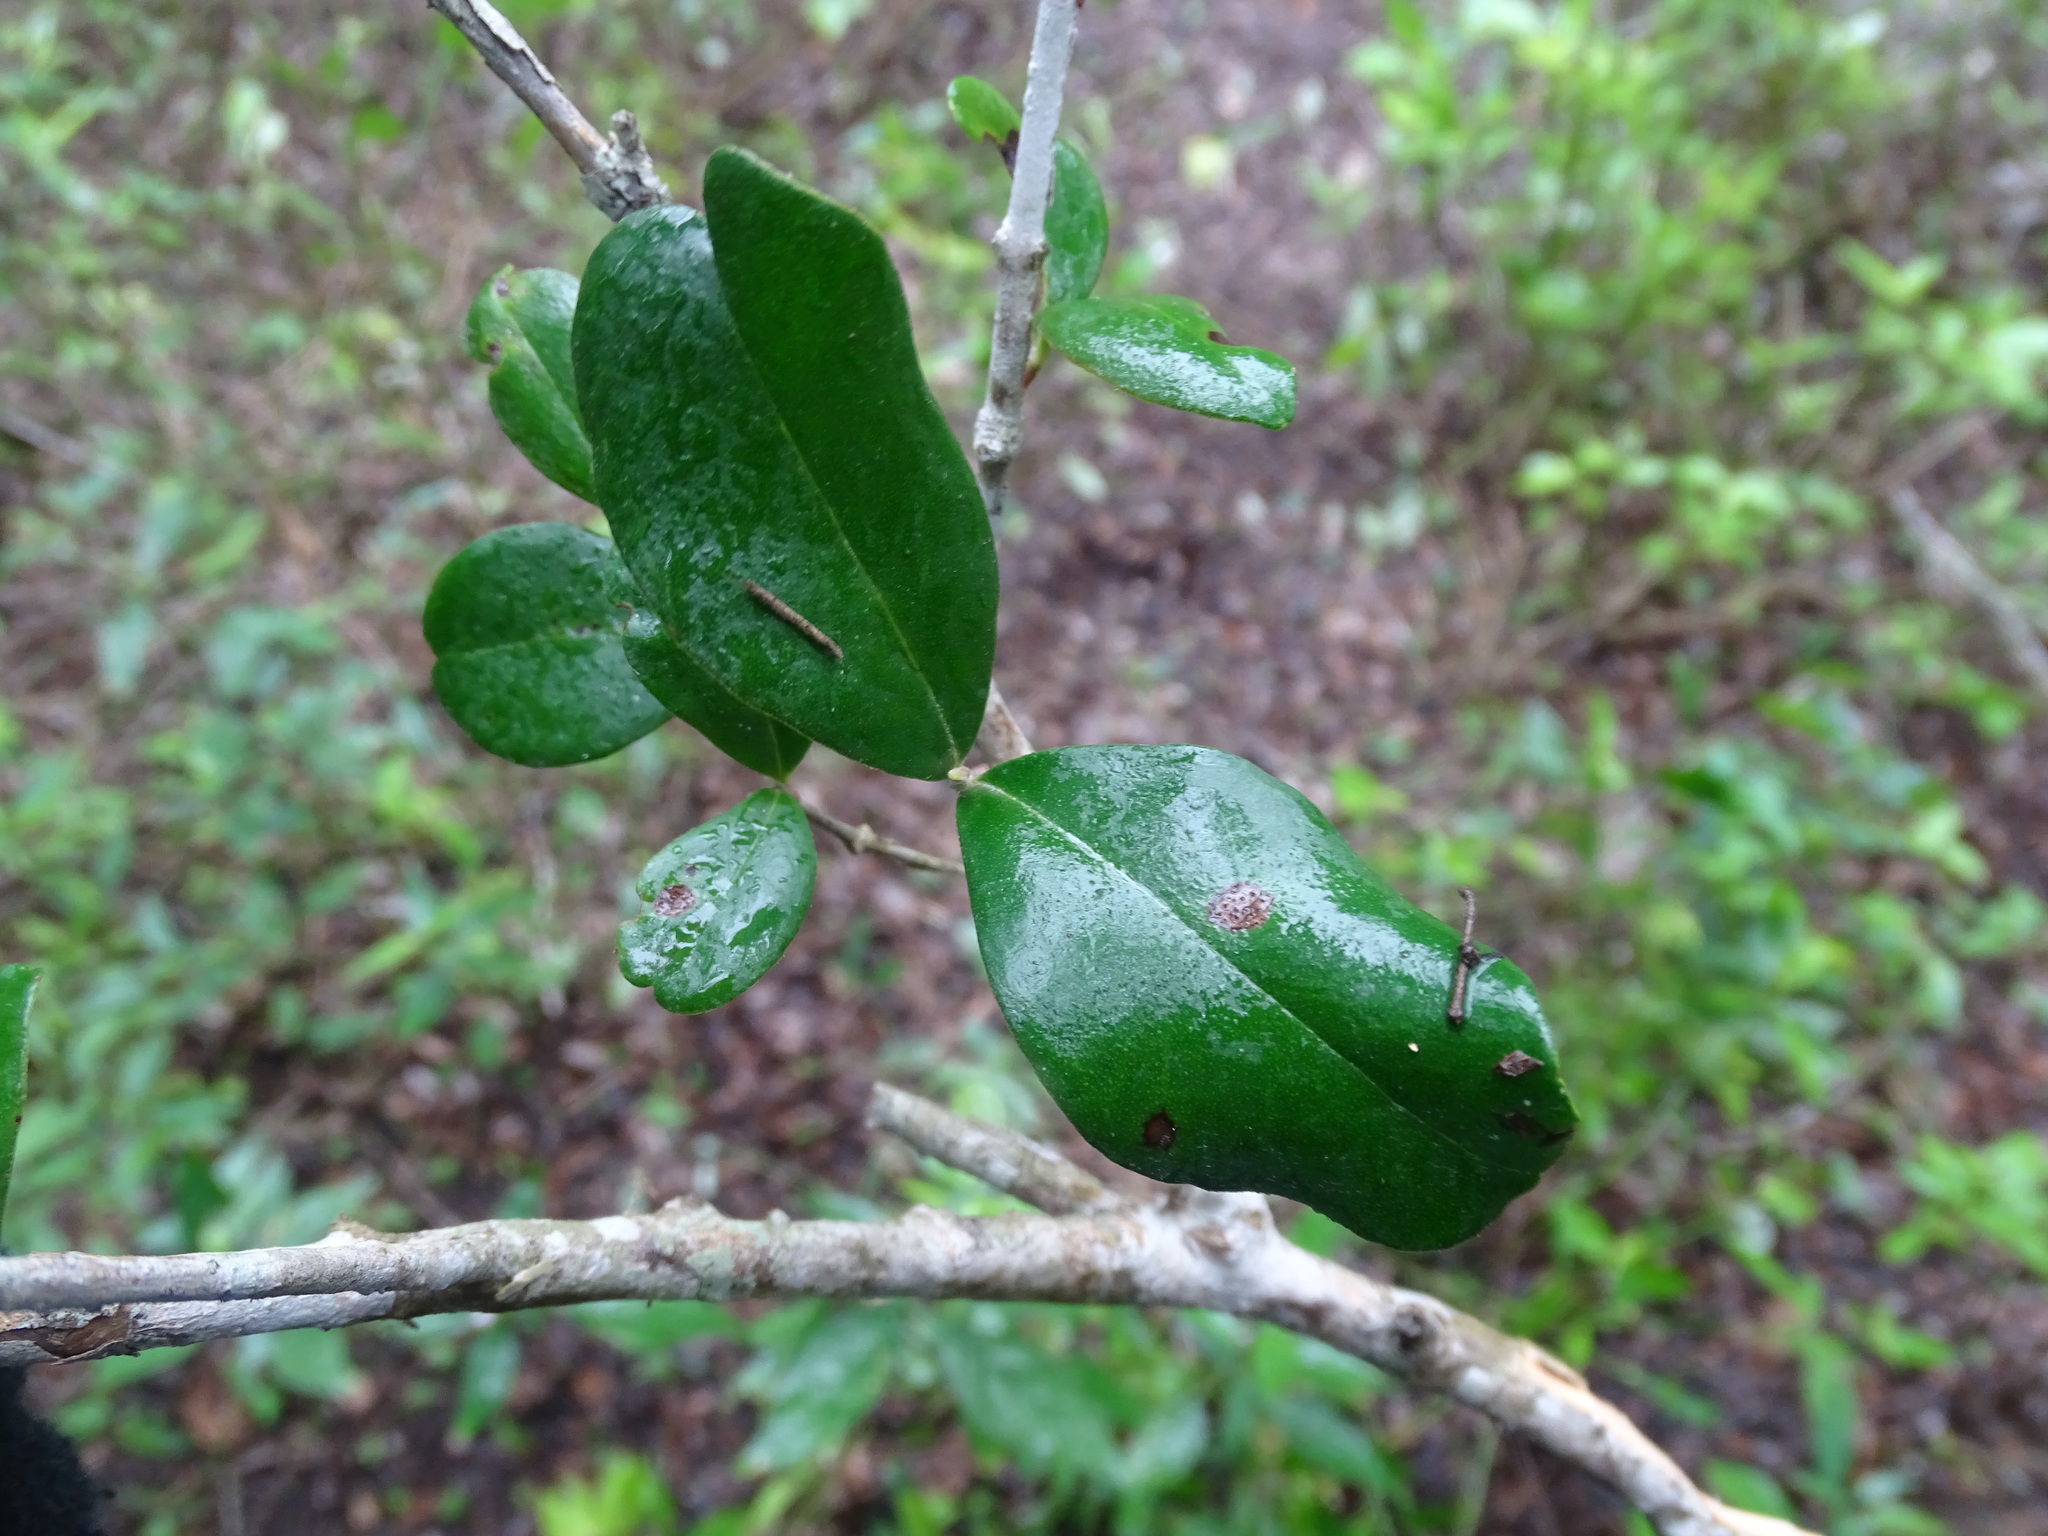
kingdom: Plantae
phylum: Tracheophyta
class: Magnoliopsida
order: Myrtales
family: Myrtaceae
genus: Myrcianthes
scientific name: Myrcianthes fragrans
